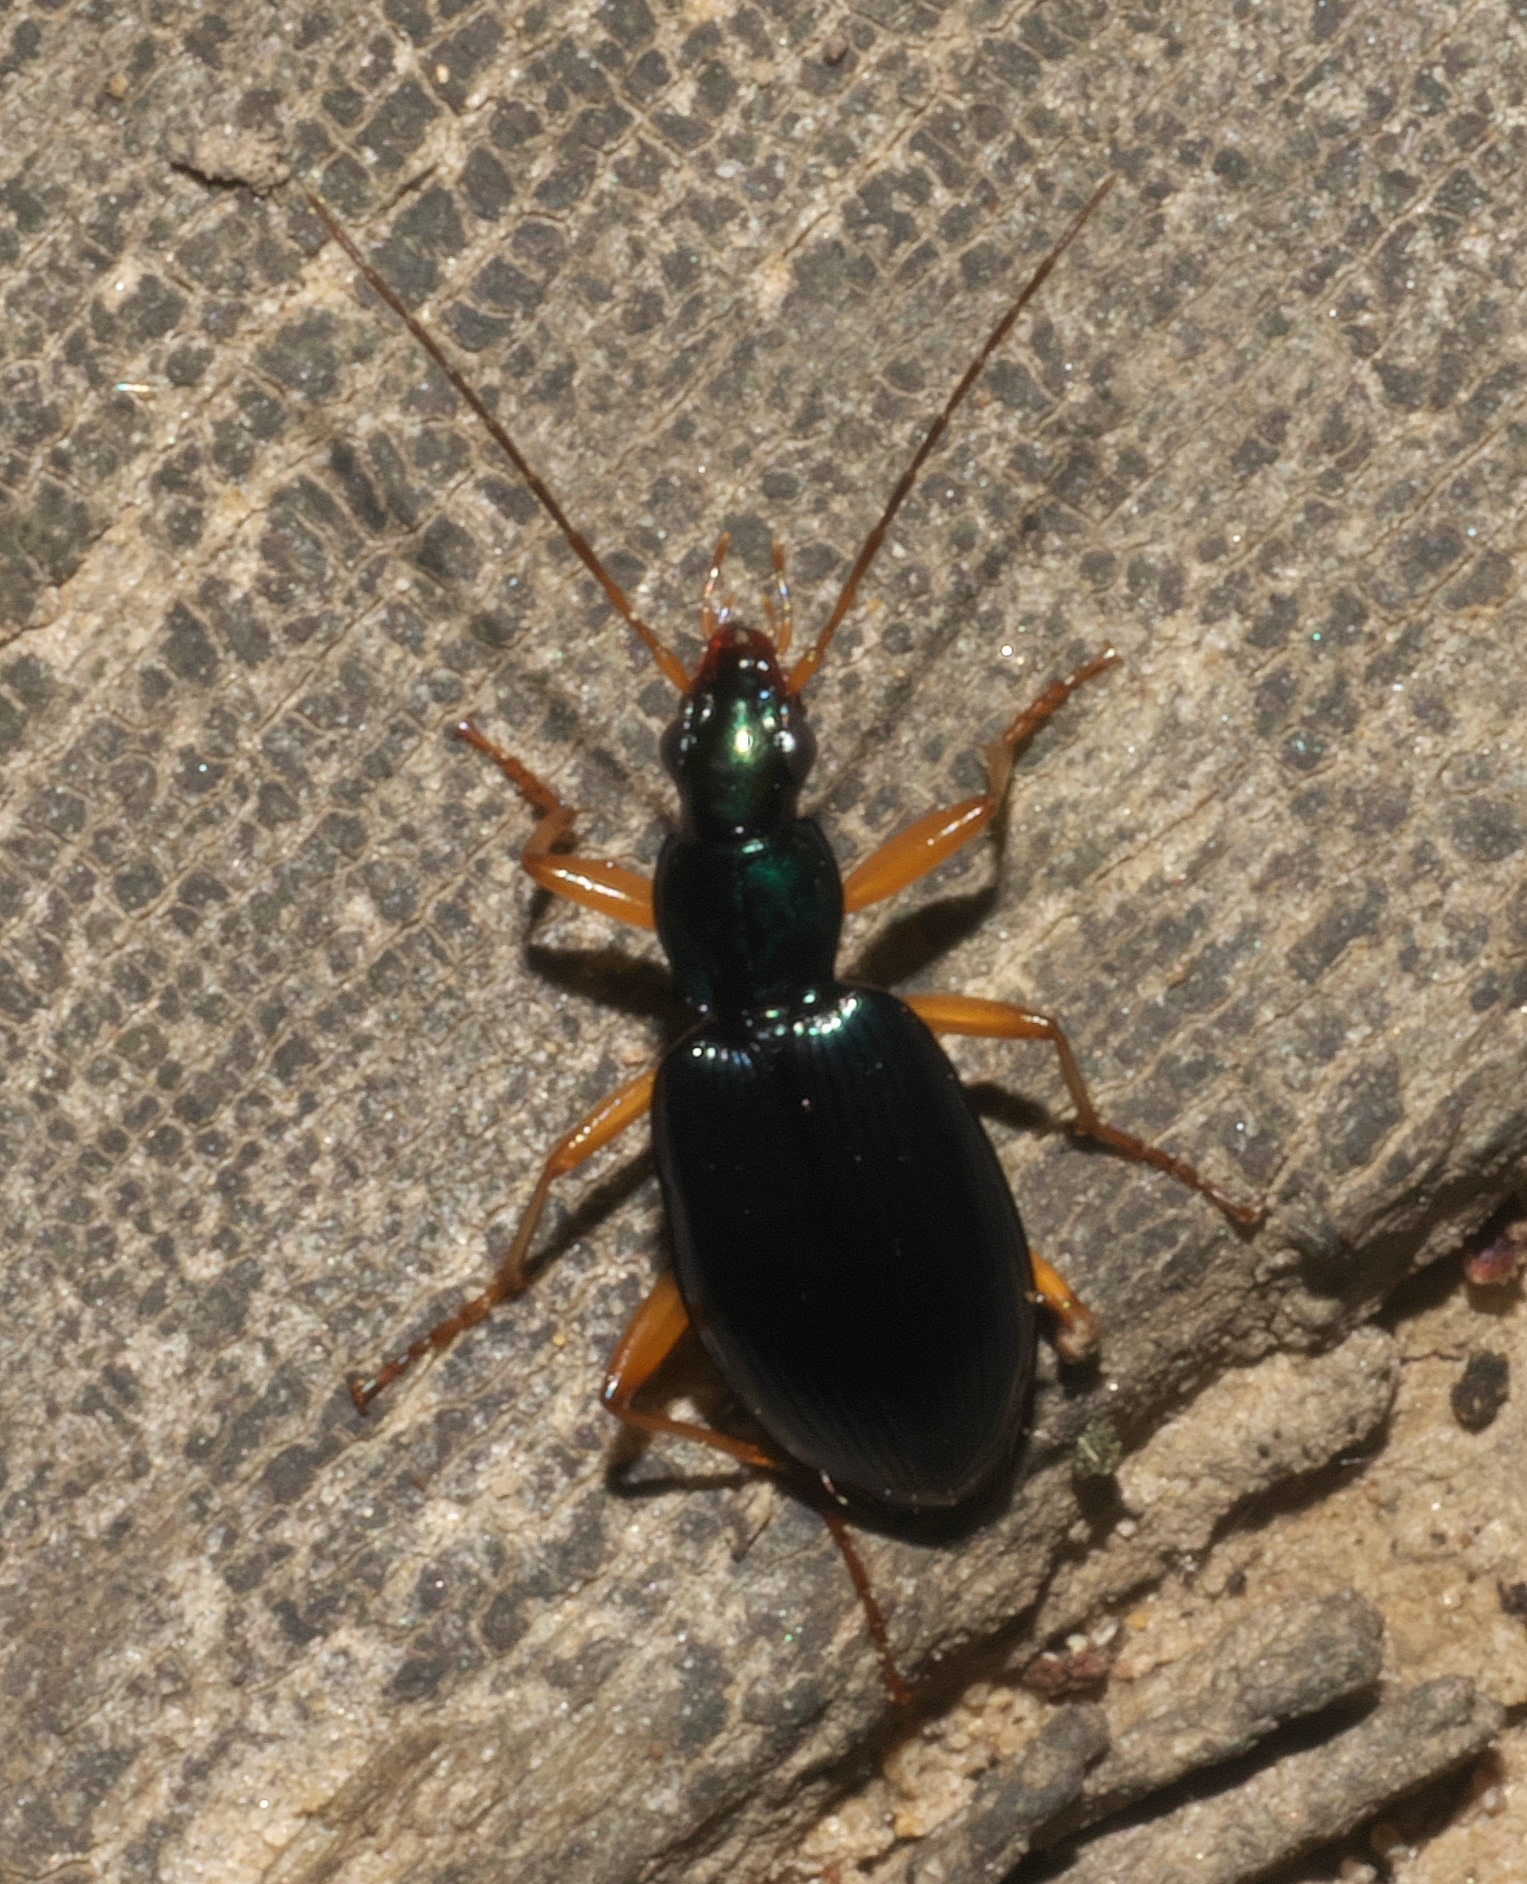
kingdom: Animalia
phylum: Arthropoda
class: Insecta
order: Coleoptera
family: Carabidae
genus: Agonum
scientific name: Agonum extensicolle
